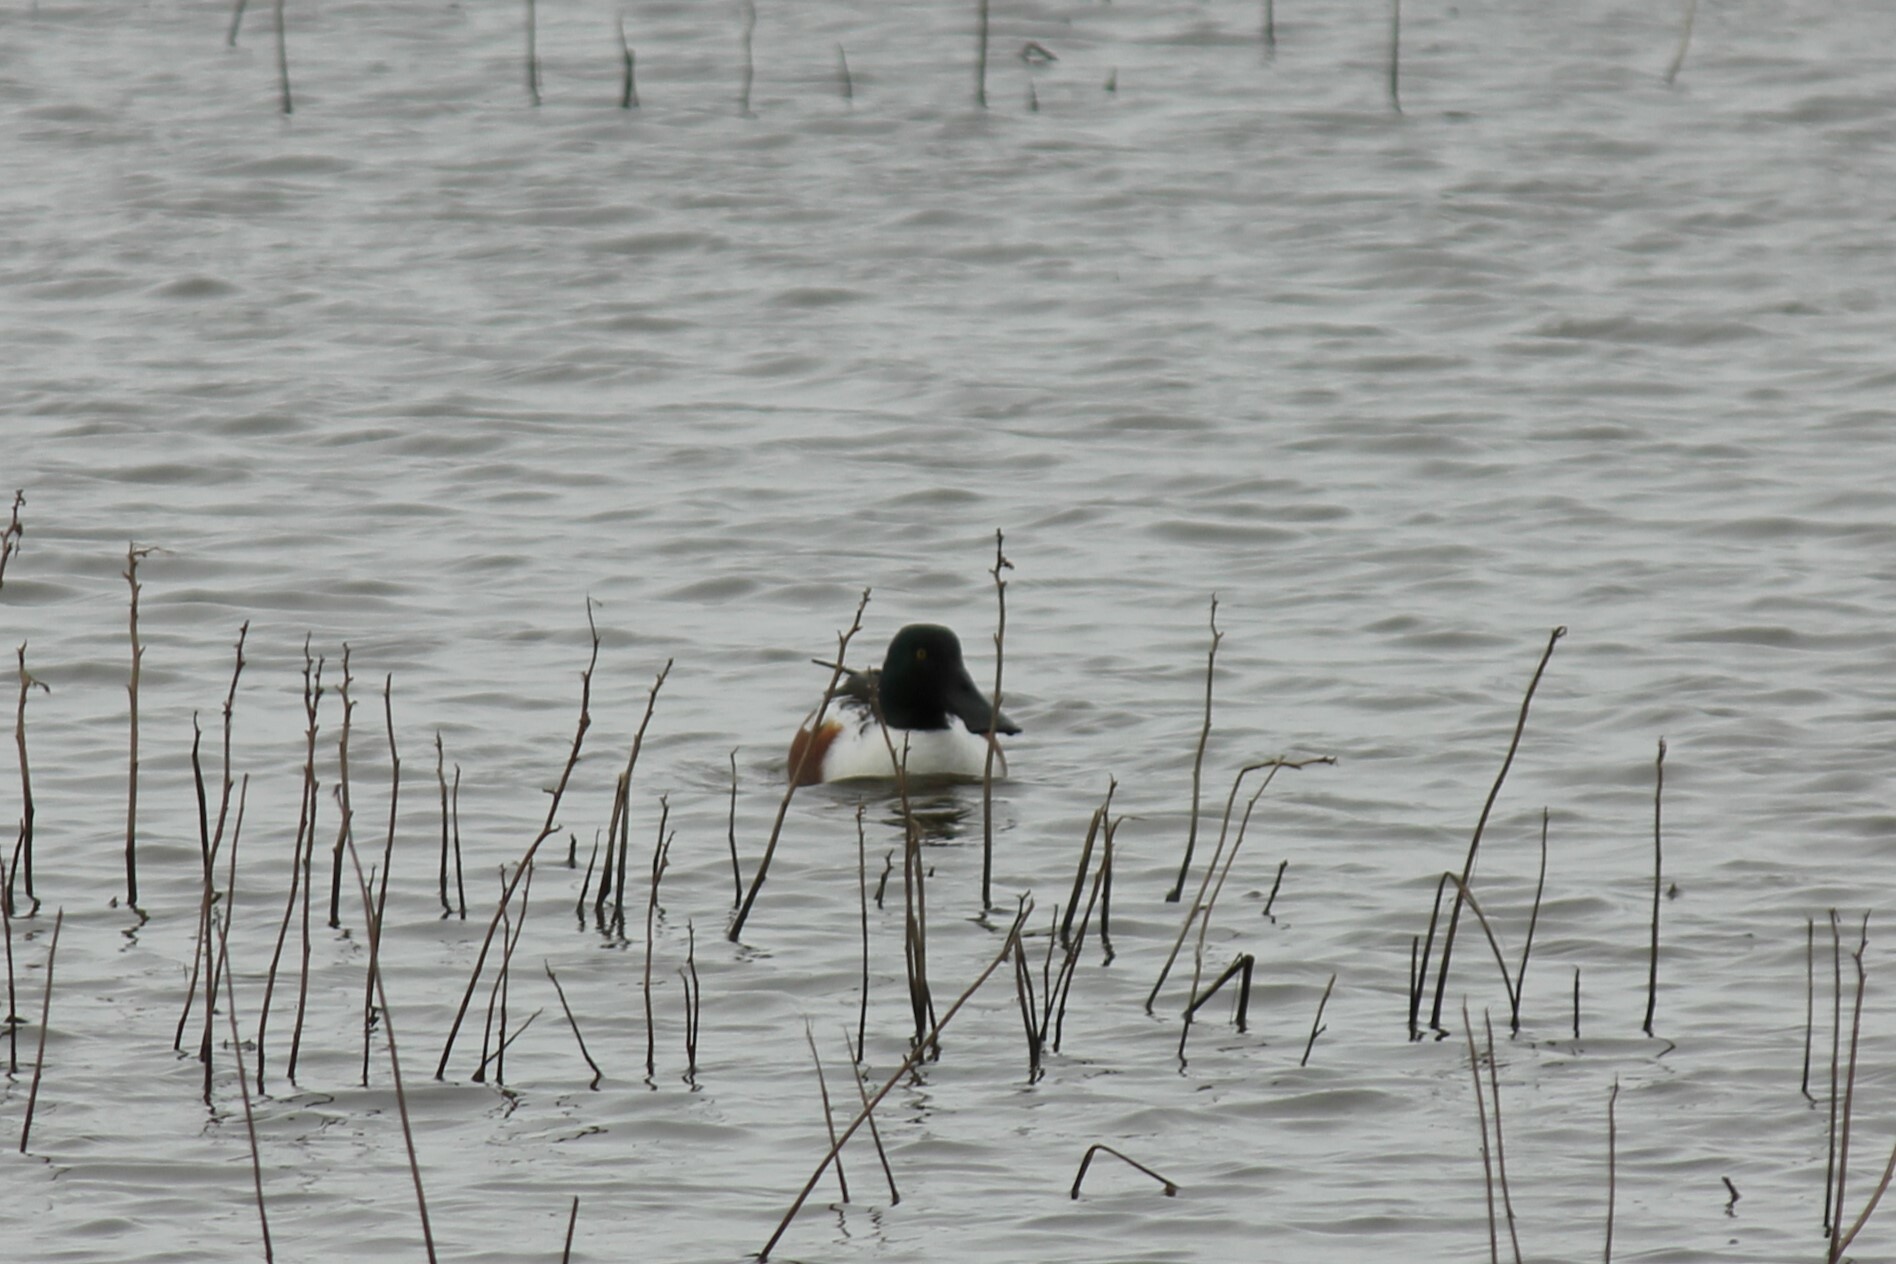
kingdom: Animalia
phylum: Chordata
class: Aves
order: Anseriformes
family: Anatidae
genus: Spatula
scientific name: Spatula clypeata
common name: Northern shoveler
